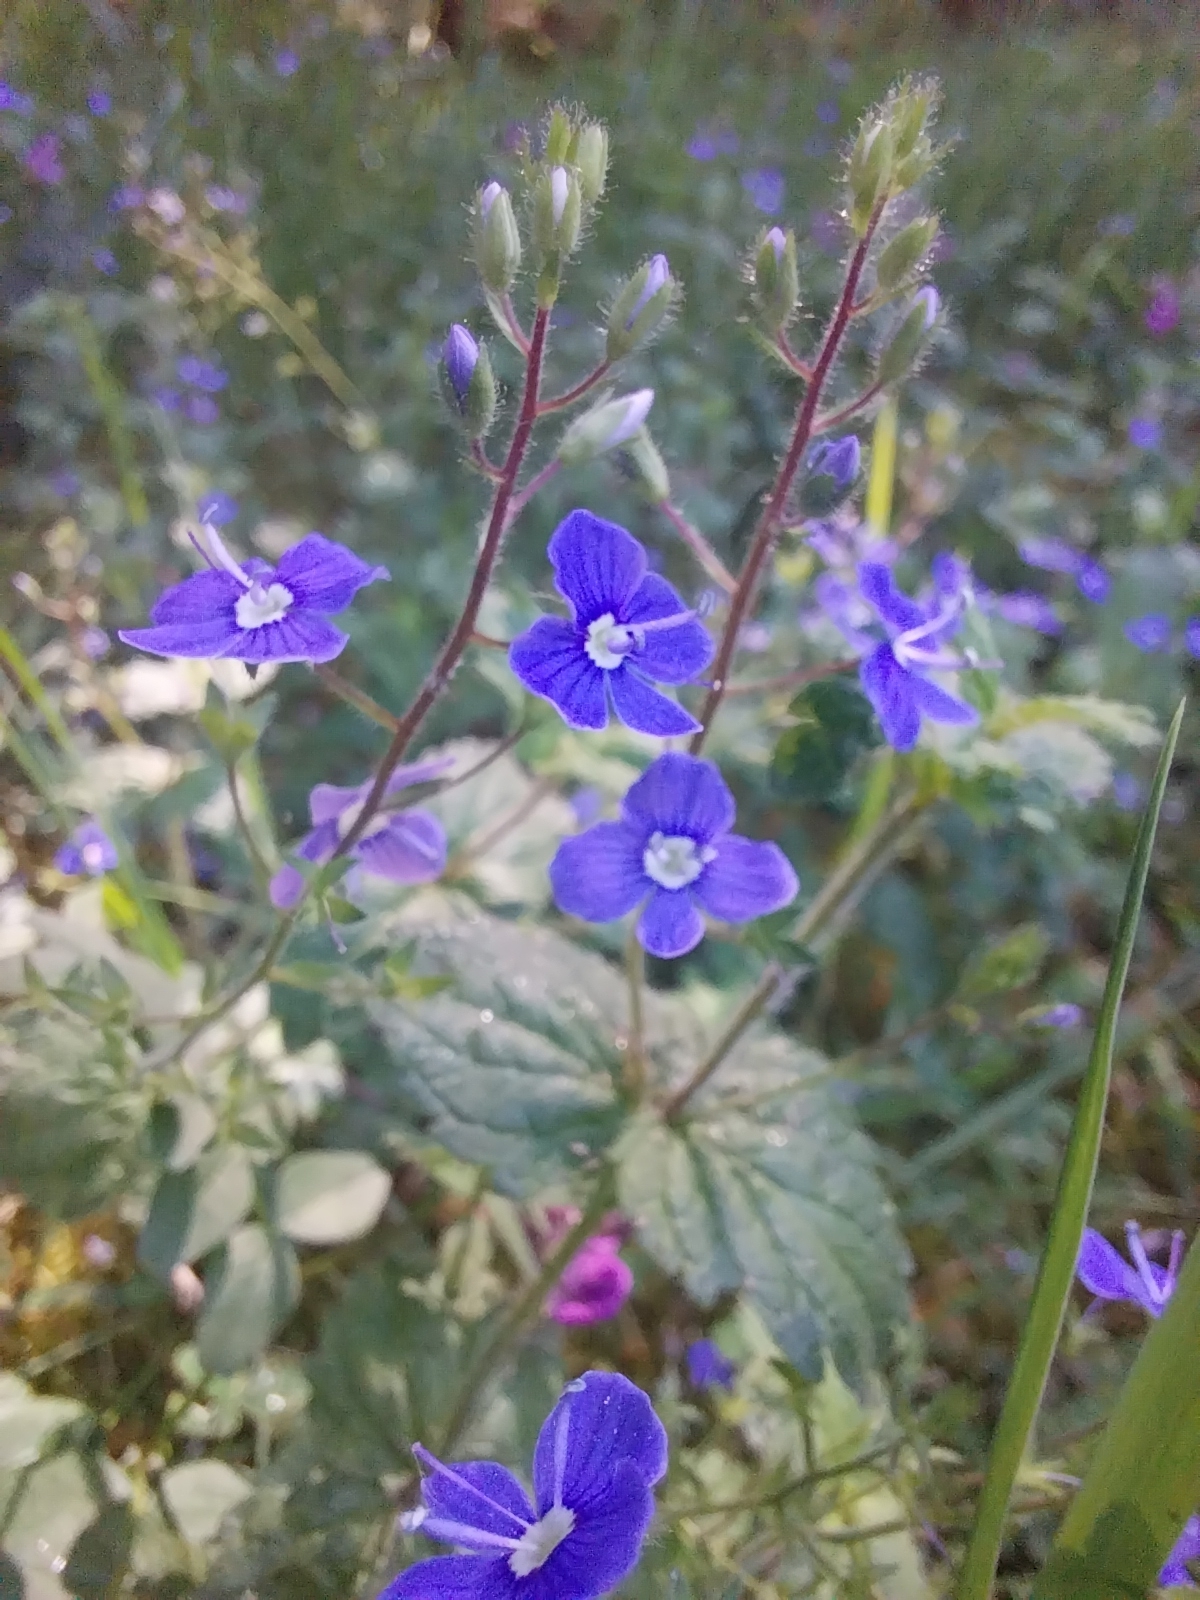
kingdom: Plantae
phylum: Tracheophyta
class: Magnoliopsida
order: Lamiales
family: Plantaginaceae
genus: Veronica
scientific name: Veronica chamaedrys
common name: Germander speedwell
